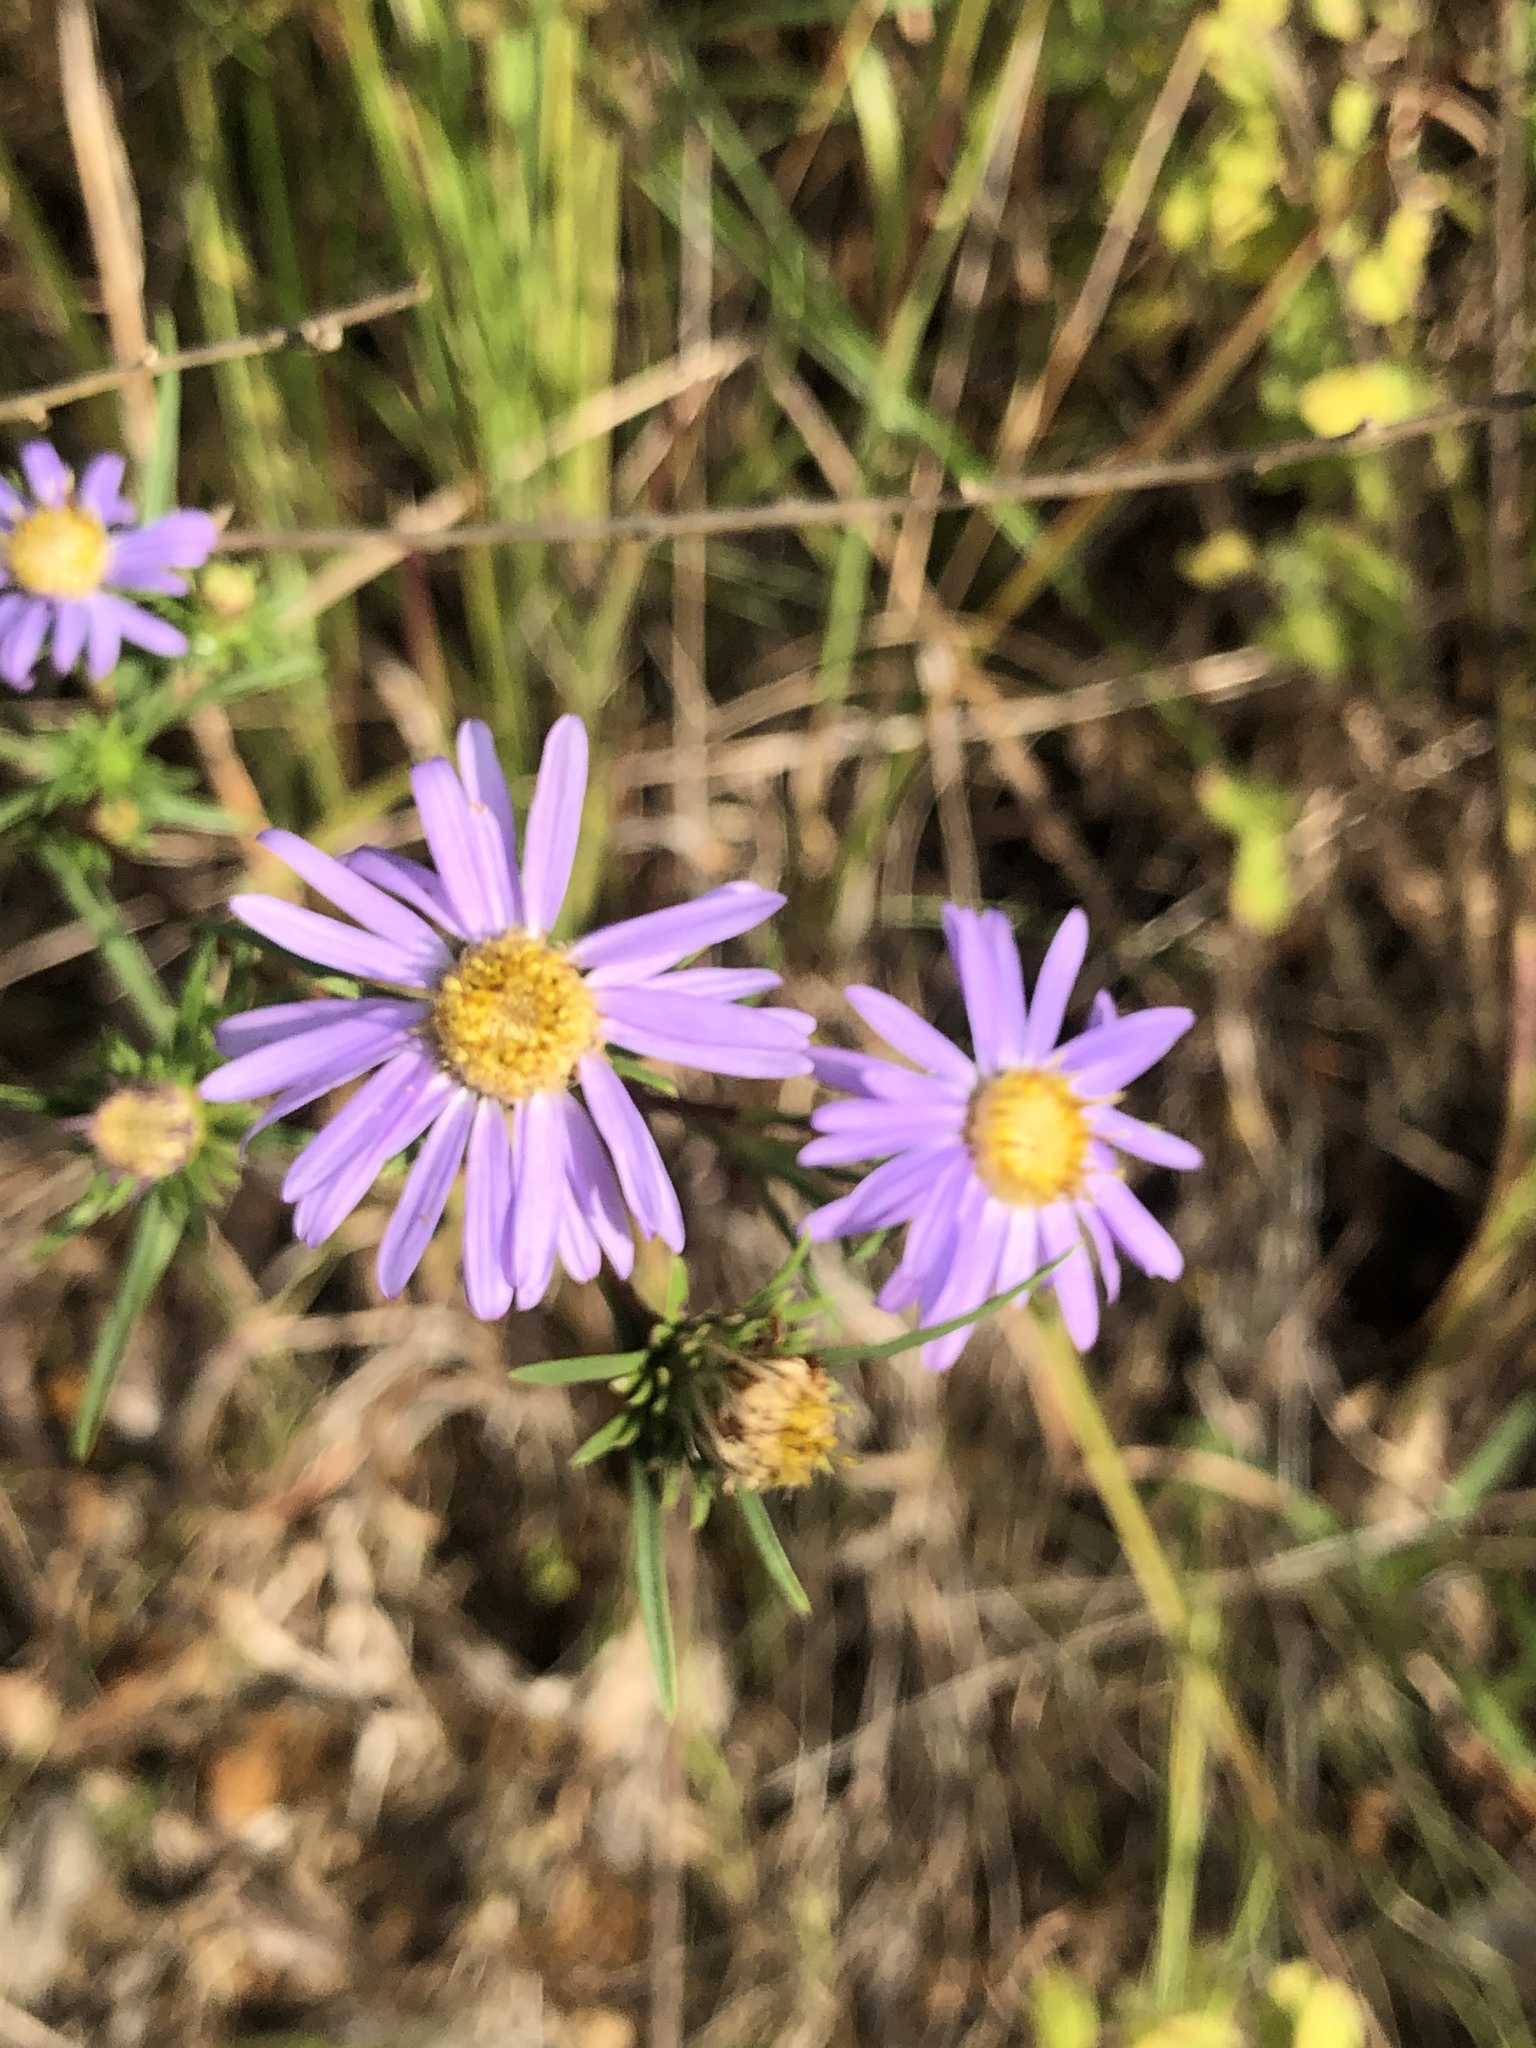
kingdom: Plantae
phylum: Tracheophyta
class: Magnoliopsida
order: Asterales
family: Asteraceae
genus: Eurybia
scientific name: Eurybia hemispherica
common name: Showy aster
